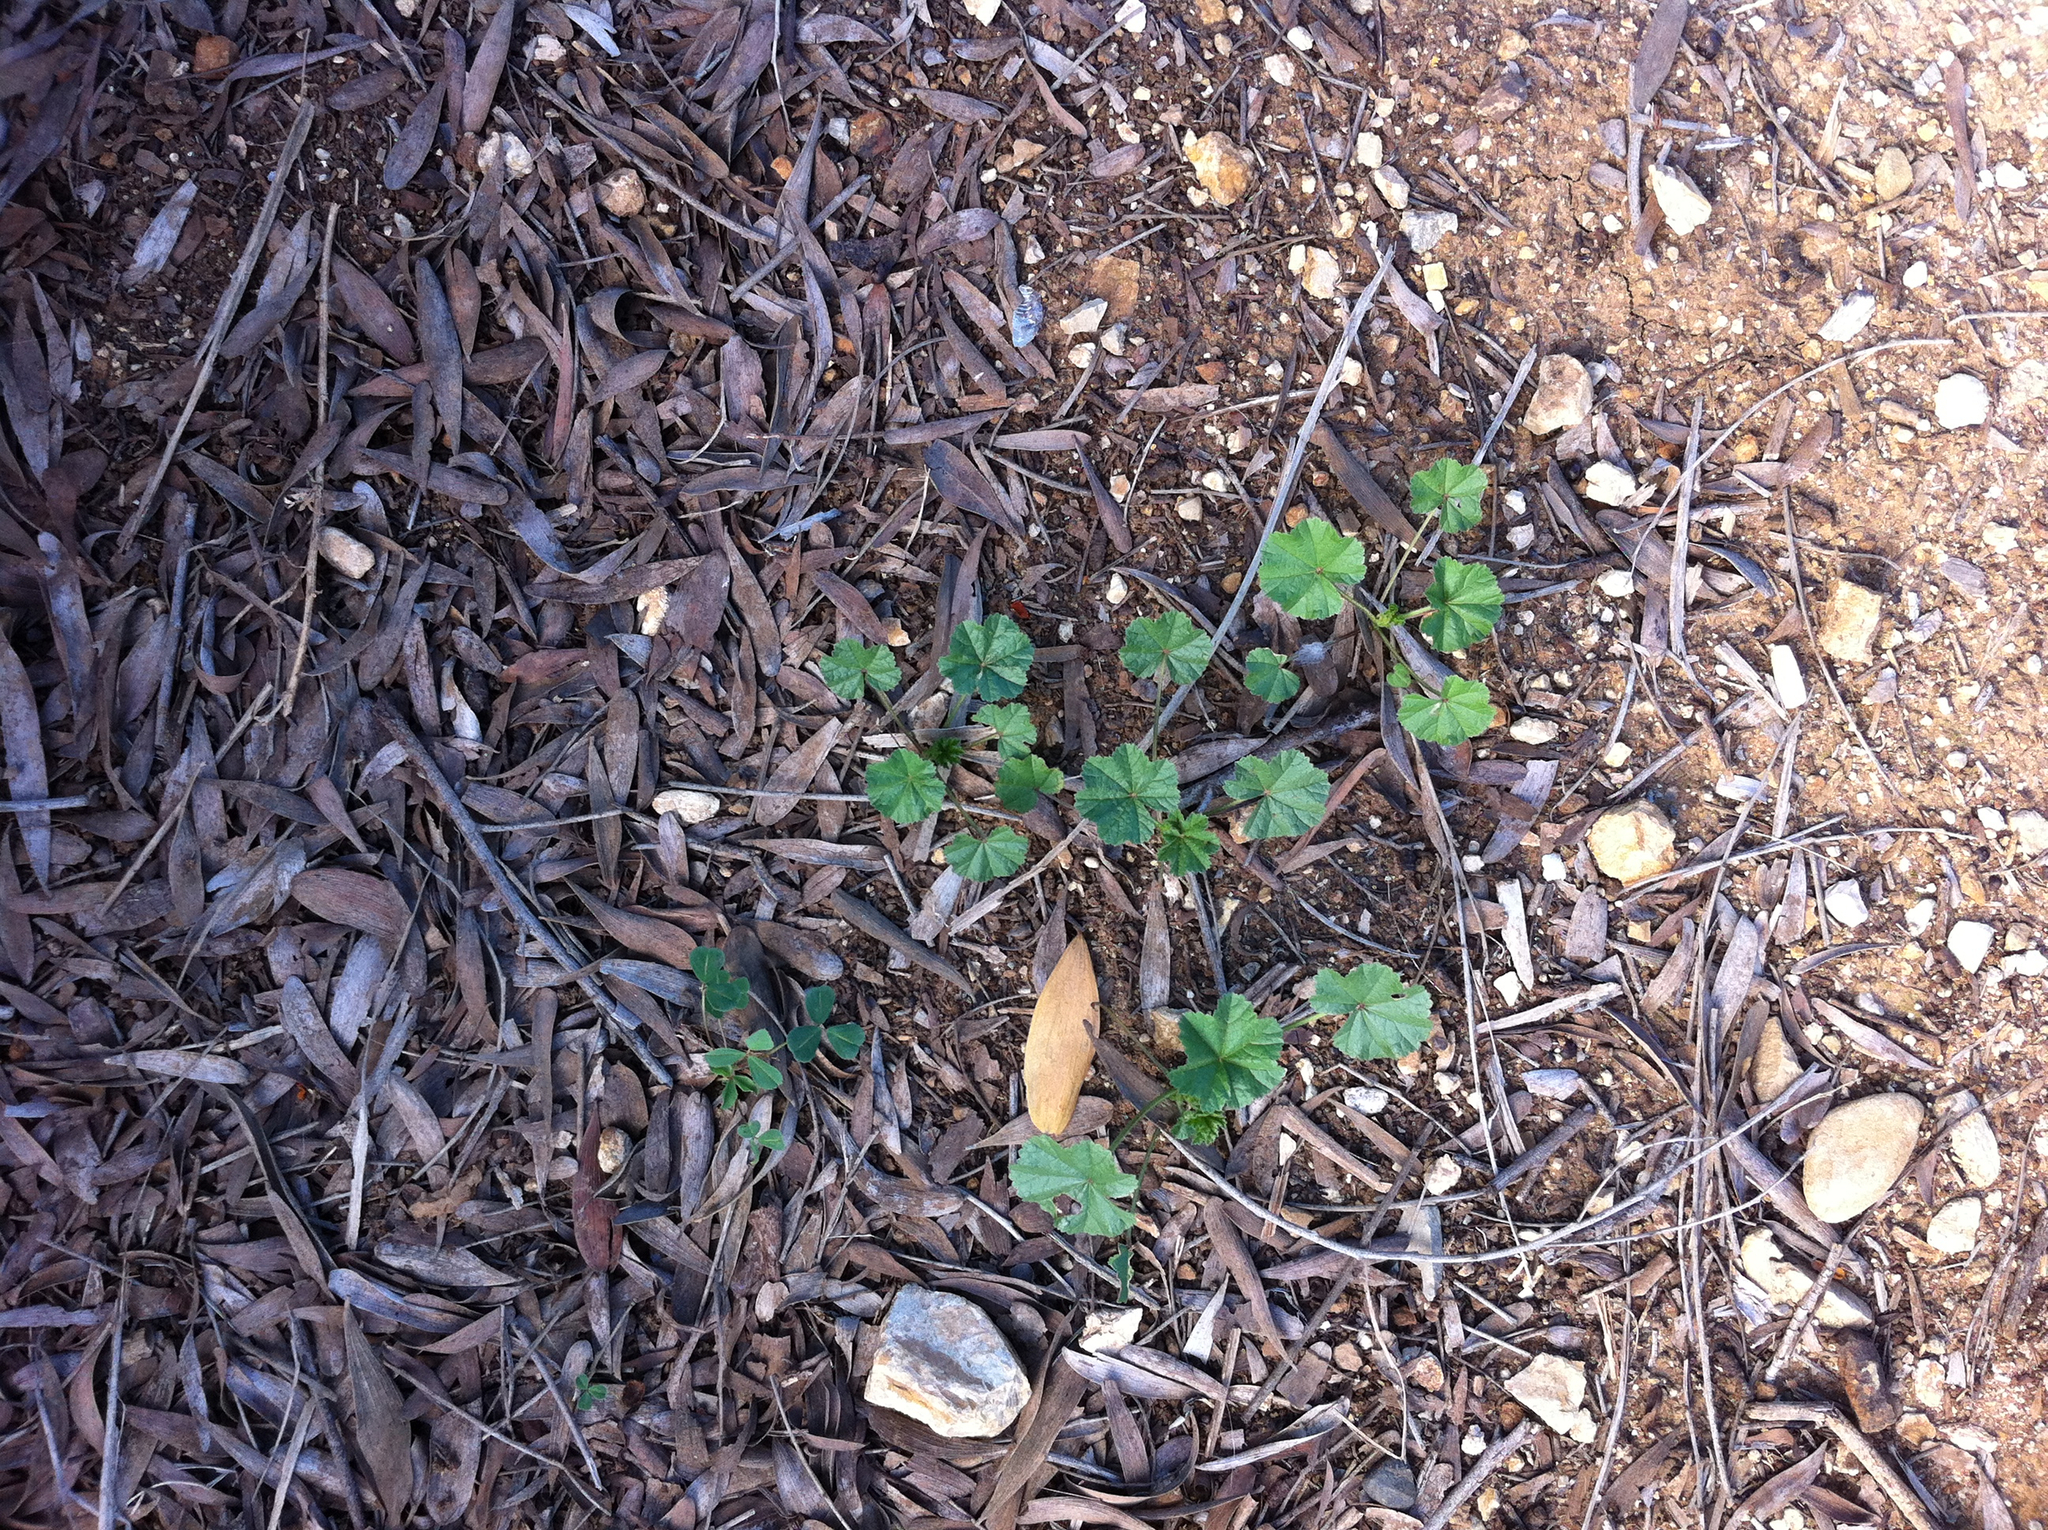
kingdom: Plantae
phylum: Tracheophyta
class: Magnoliopsida
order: Malvales
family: Malvaceae
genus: Malva
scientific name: Malva
